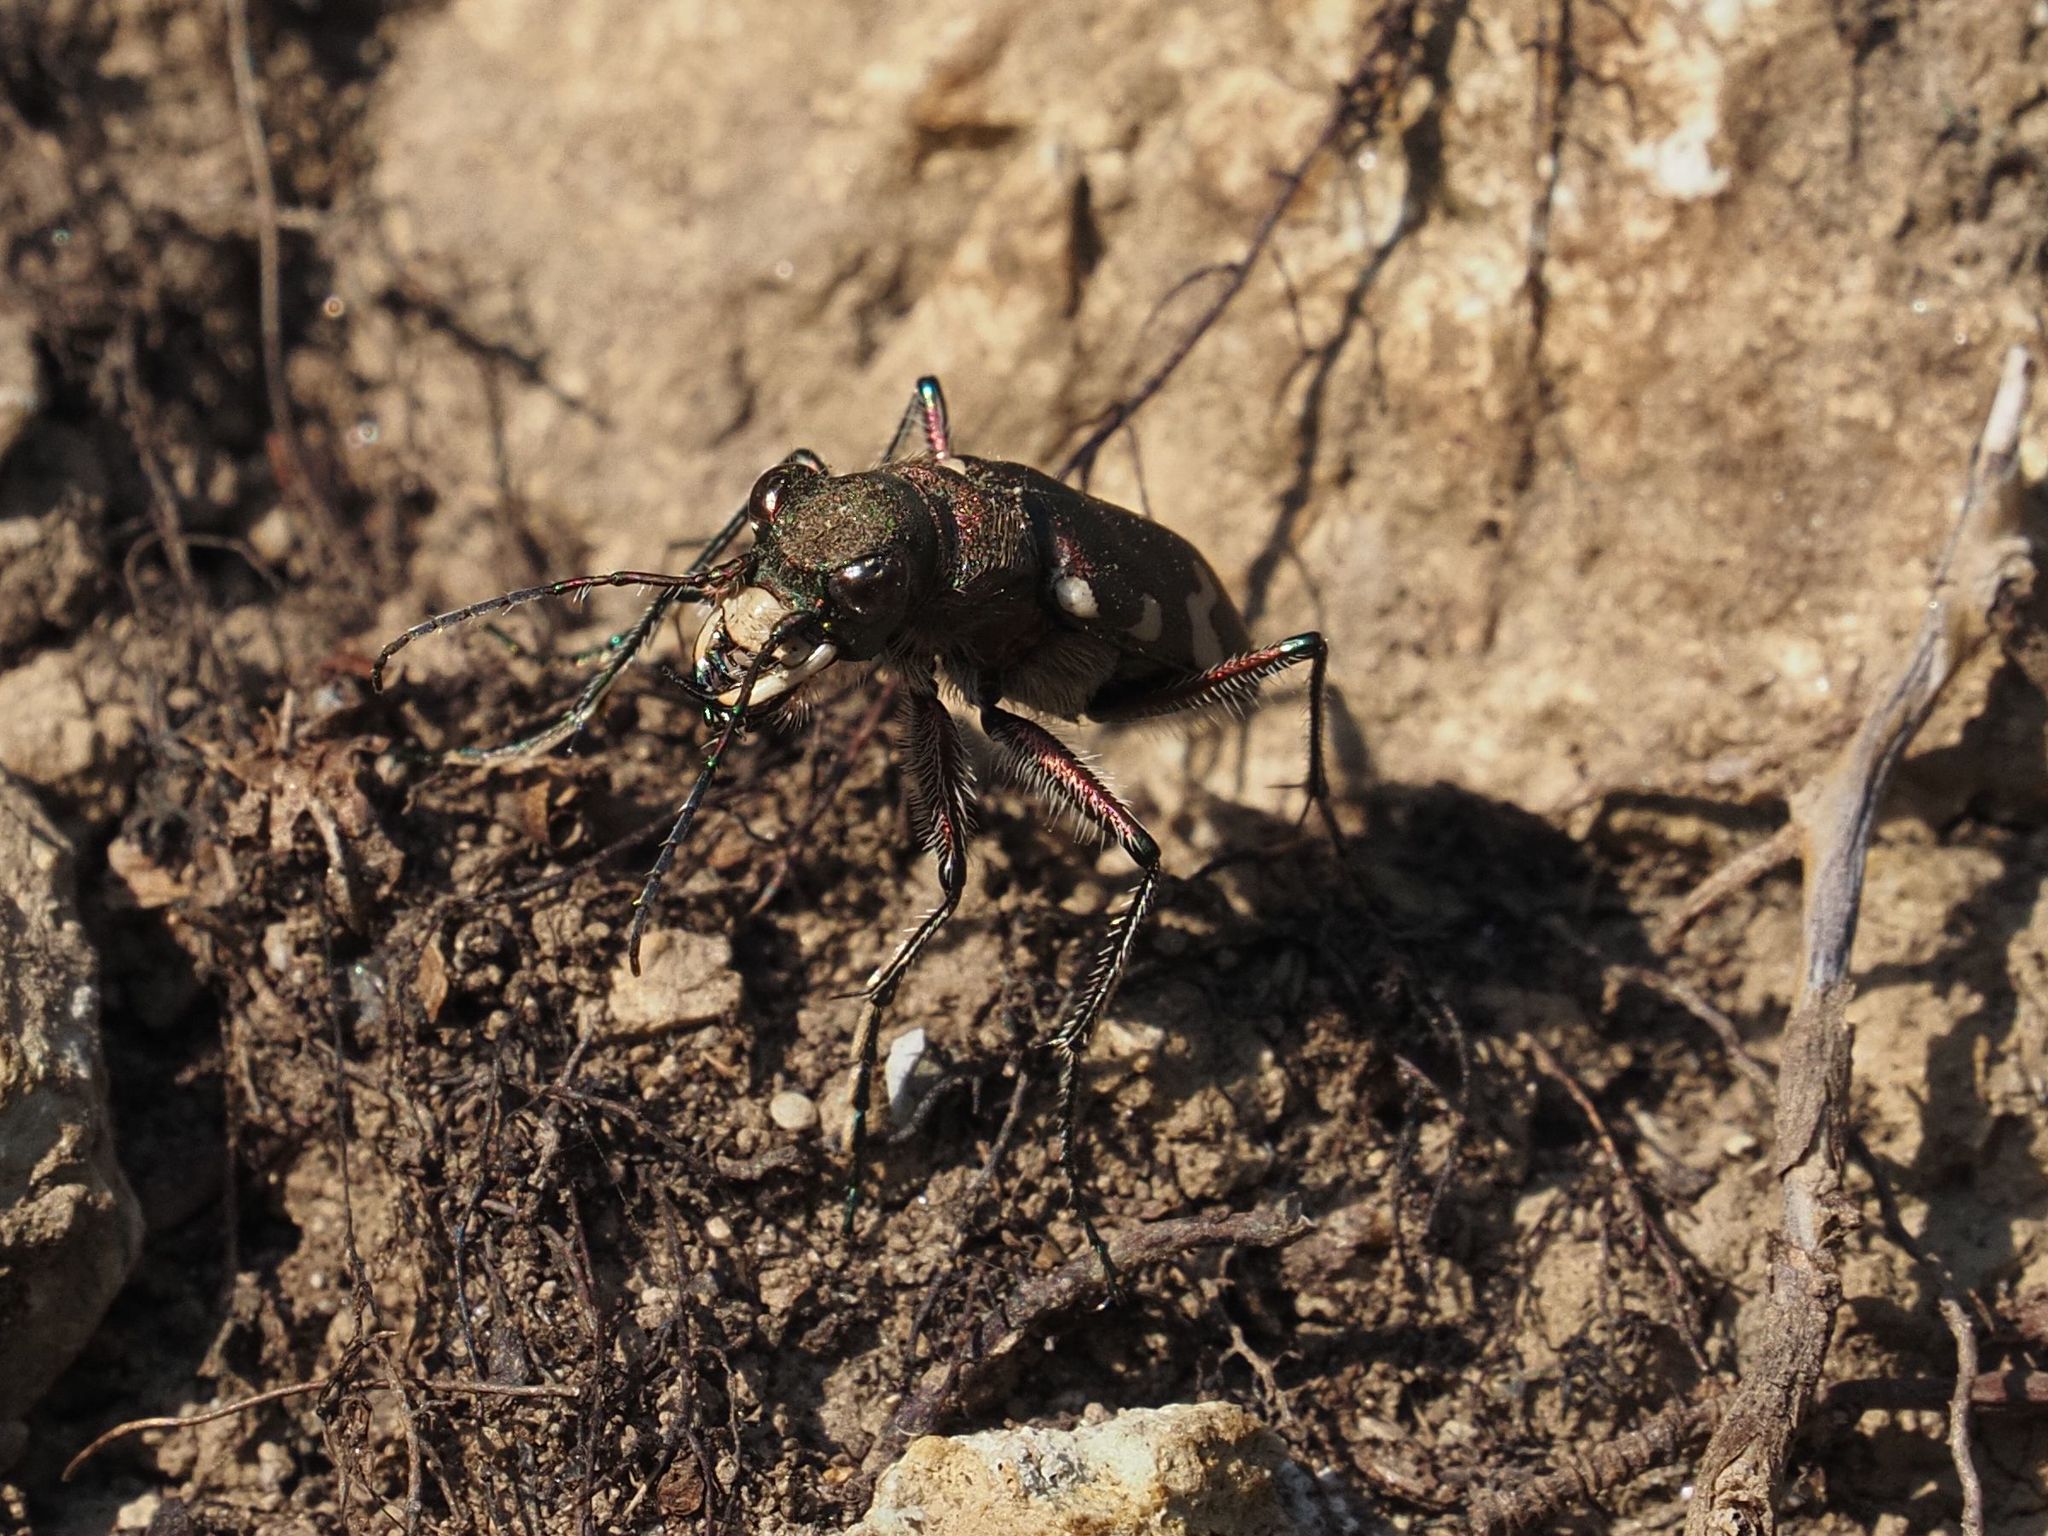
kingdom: Animalia
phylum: Arthropoda
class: Insecta
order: Coleoptera
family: Carabidae
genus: Cicindela
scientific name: Cicindela sylvicola
